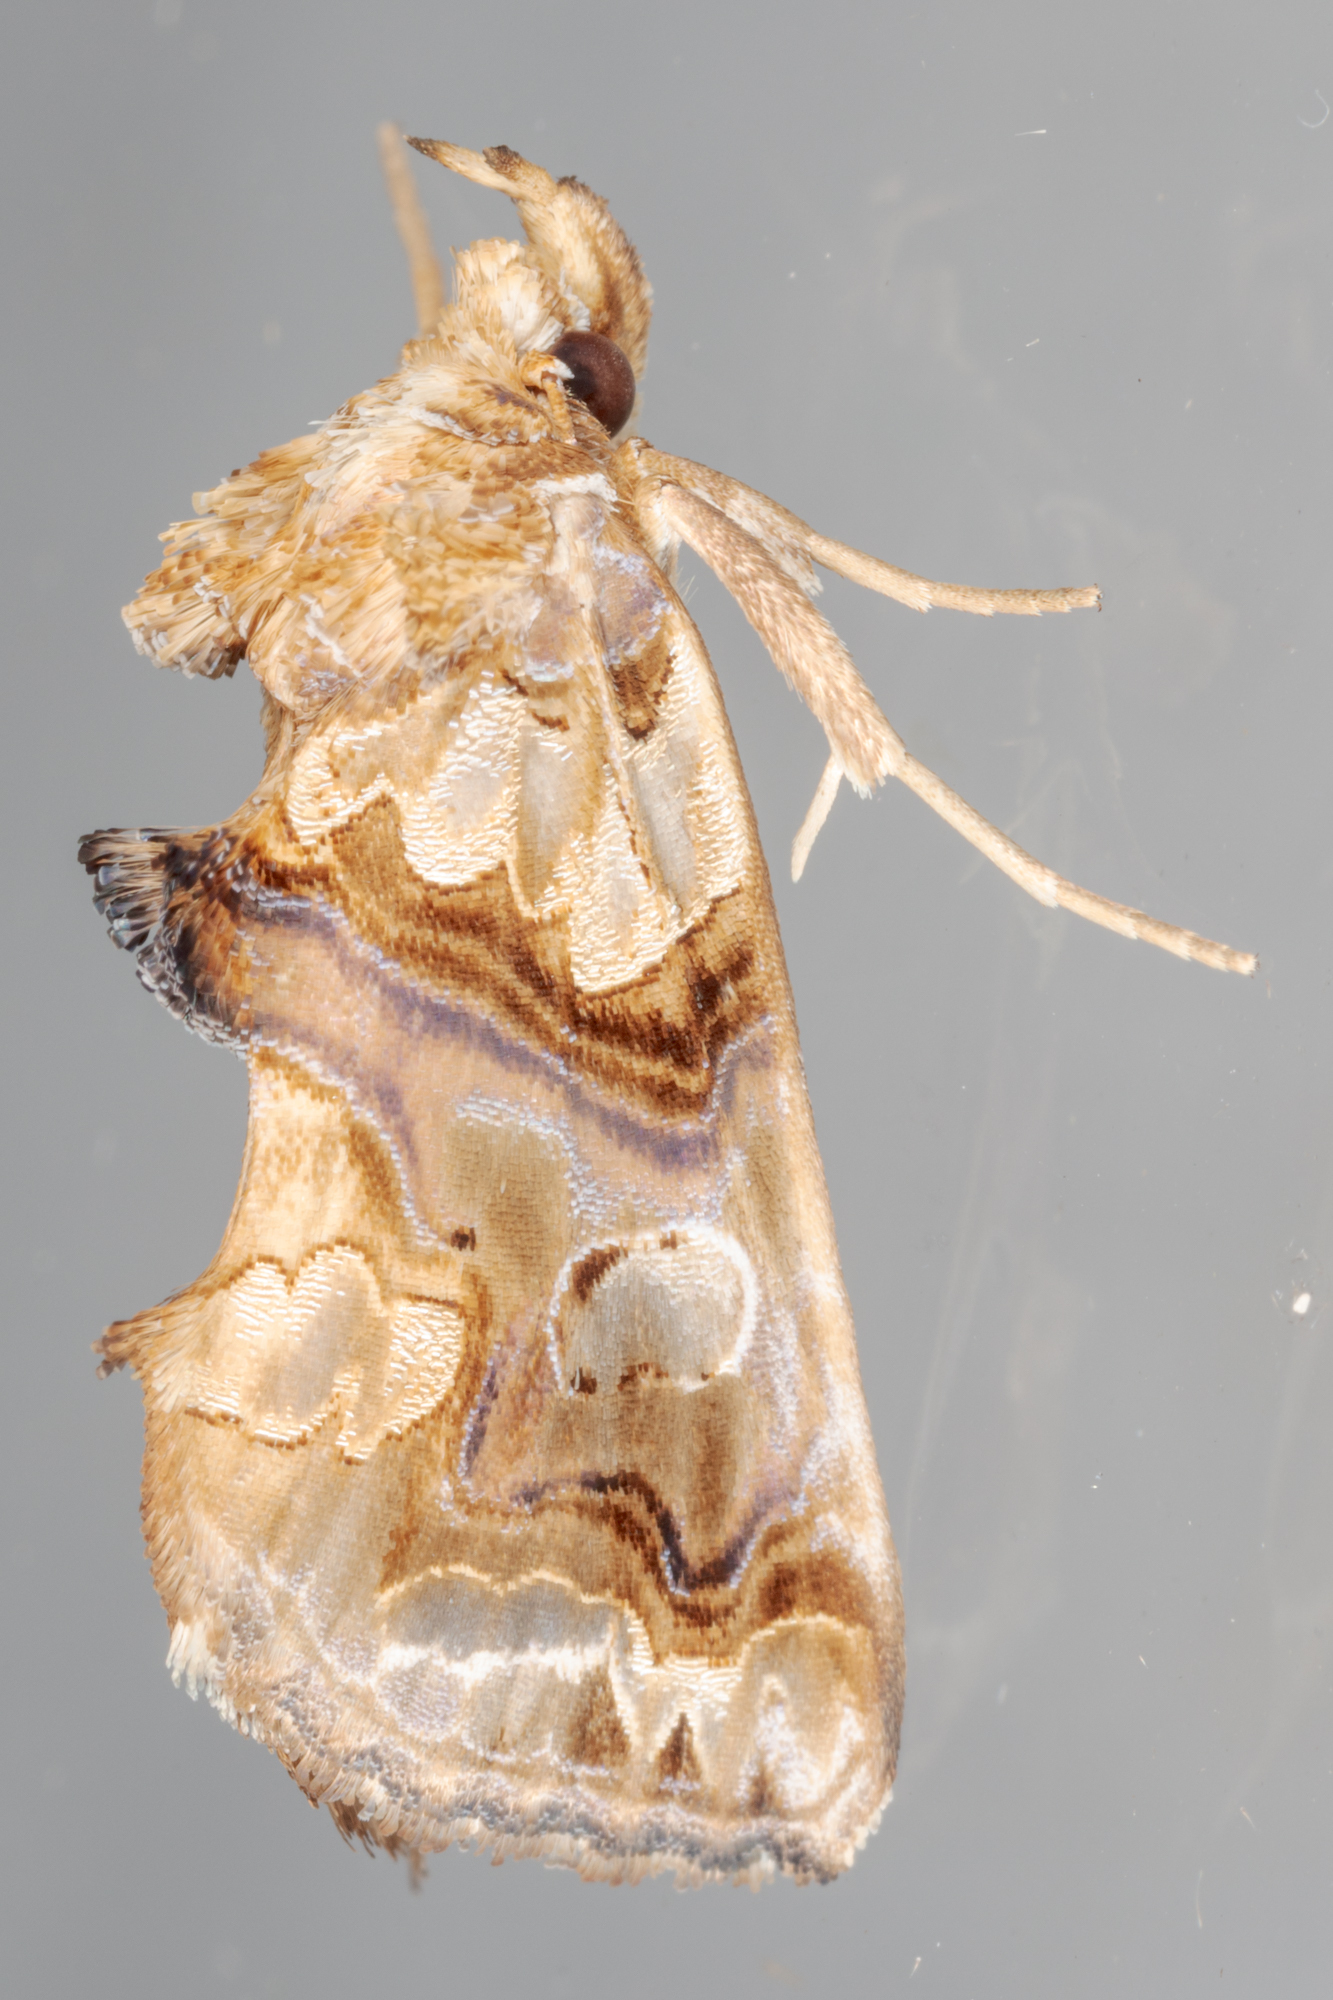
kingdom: Animalia
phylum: Arthropoda
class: Insecta
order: Lepidoptera
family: Erebidae
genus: Plusiodonta
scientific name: Plusiodonta compressipalpis
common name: Moonseed moth
